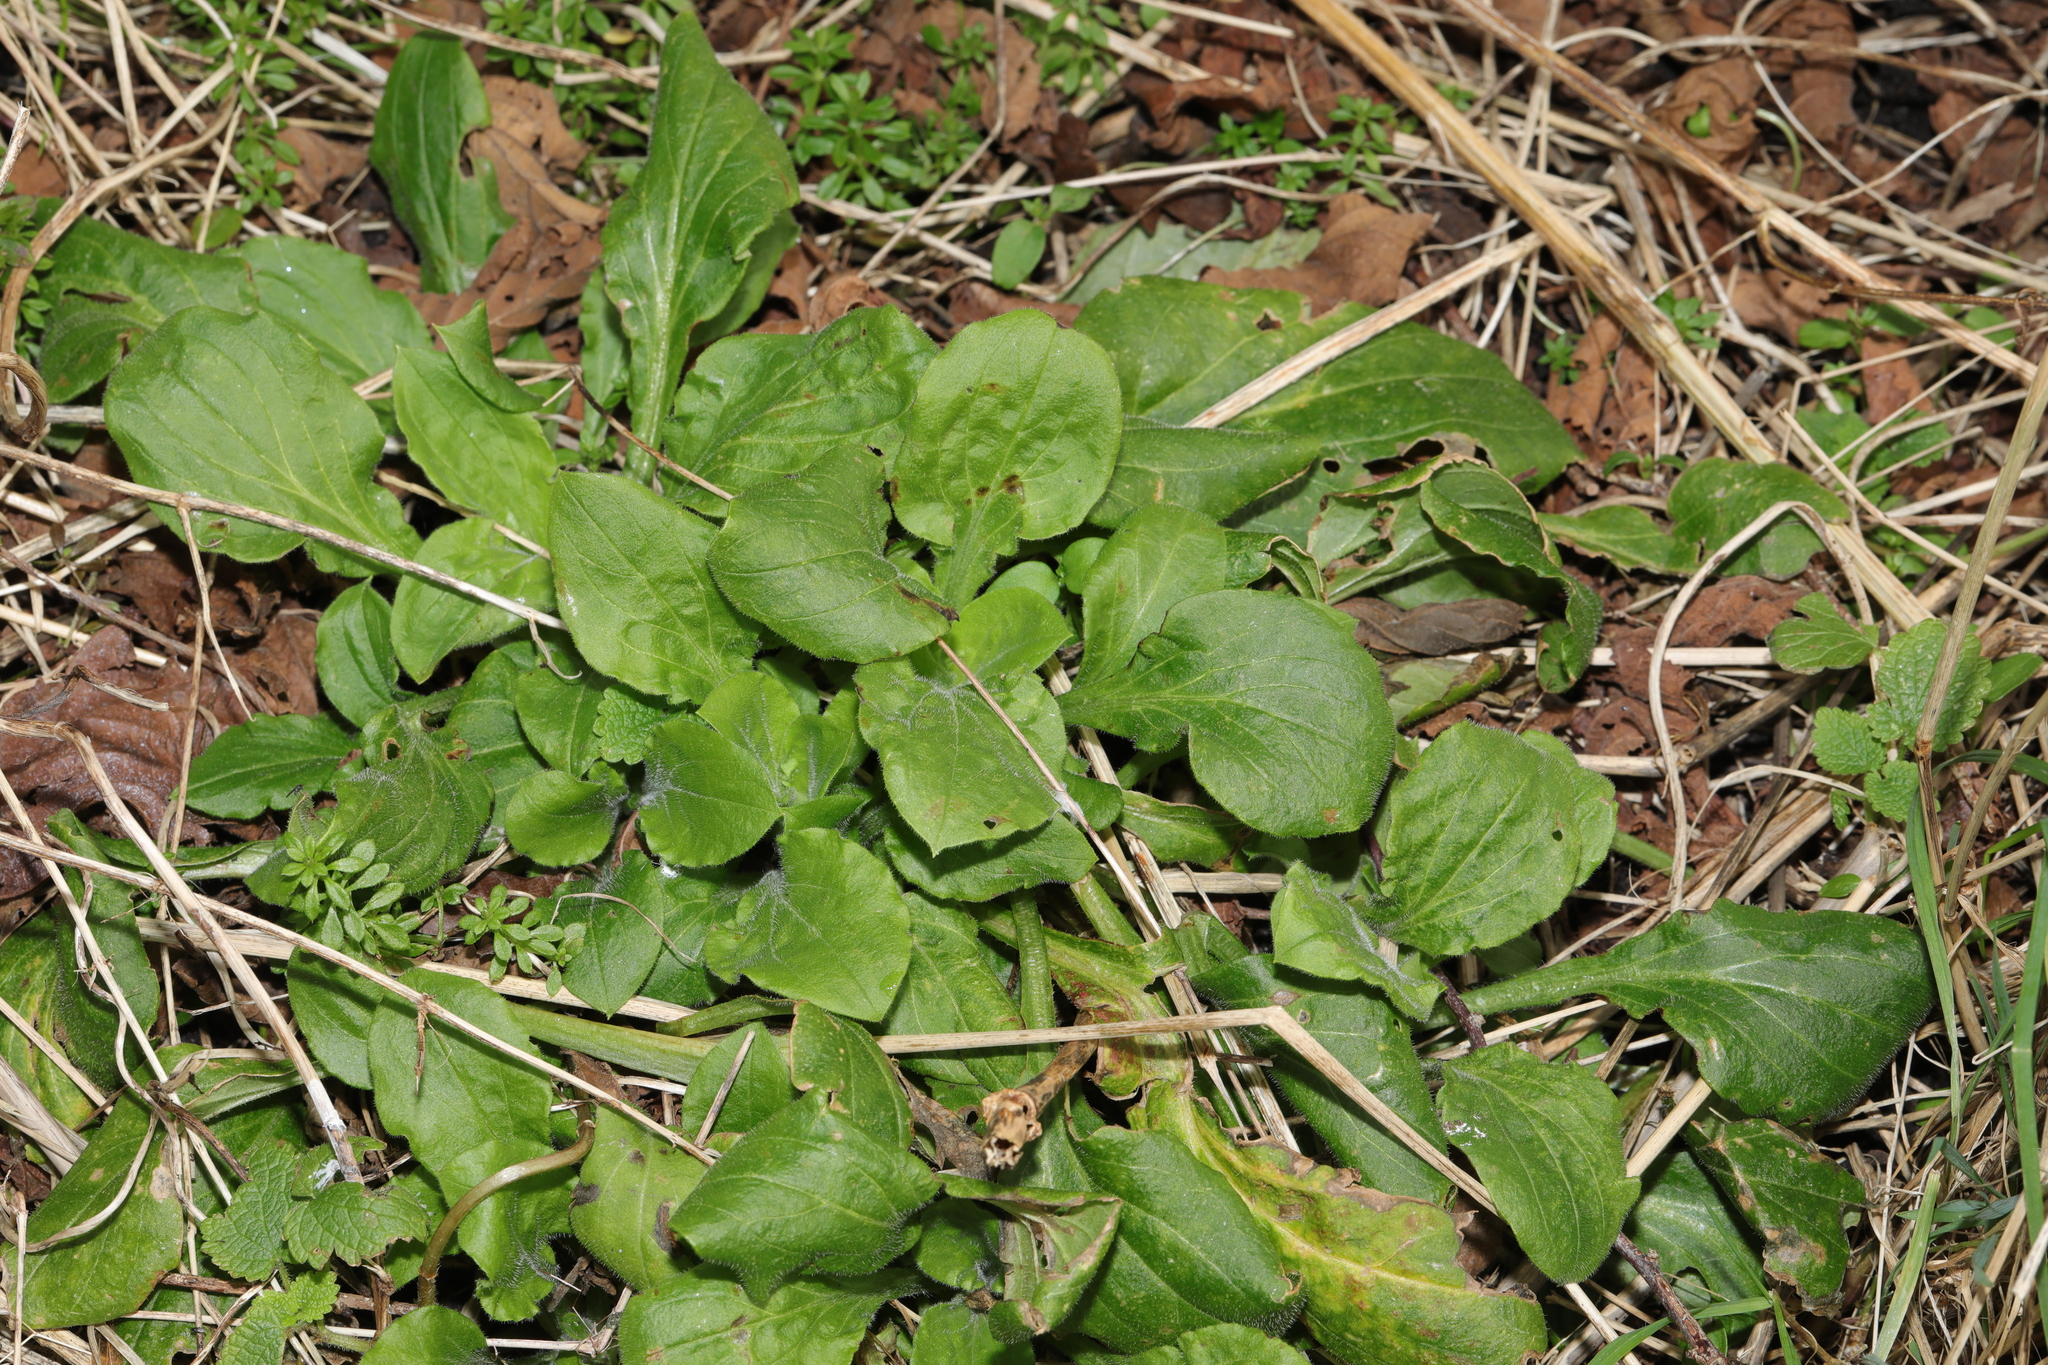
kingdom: Plantae
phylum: Tracheophyta
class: Magnoliopsida
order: Caryophyllales
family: Caryophyllaceae
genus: Silene
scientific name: Silene dioica
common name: Red campion
